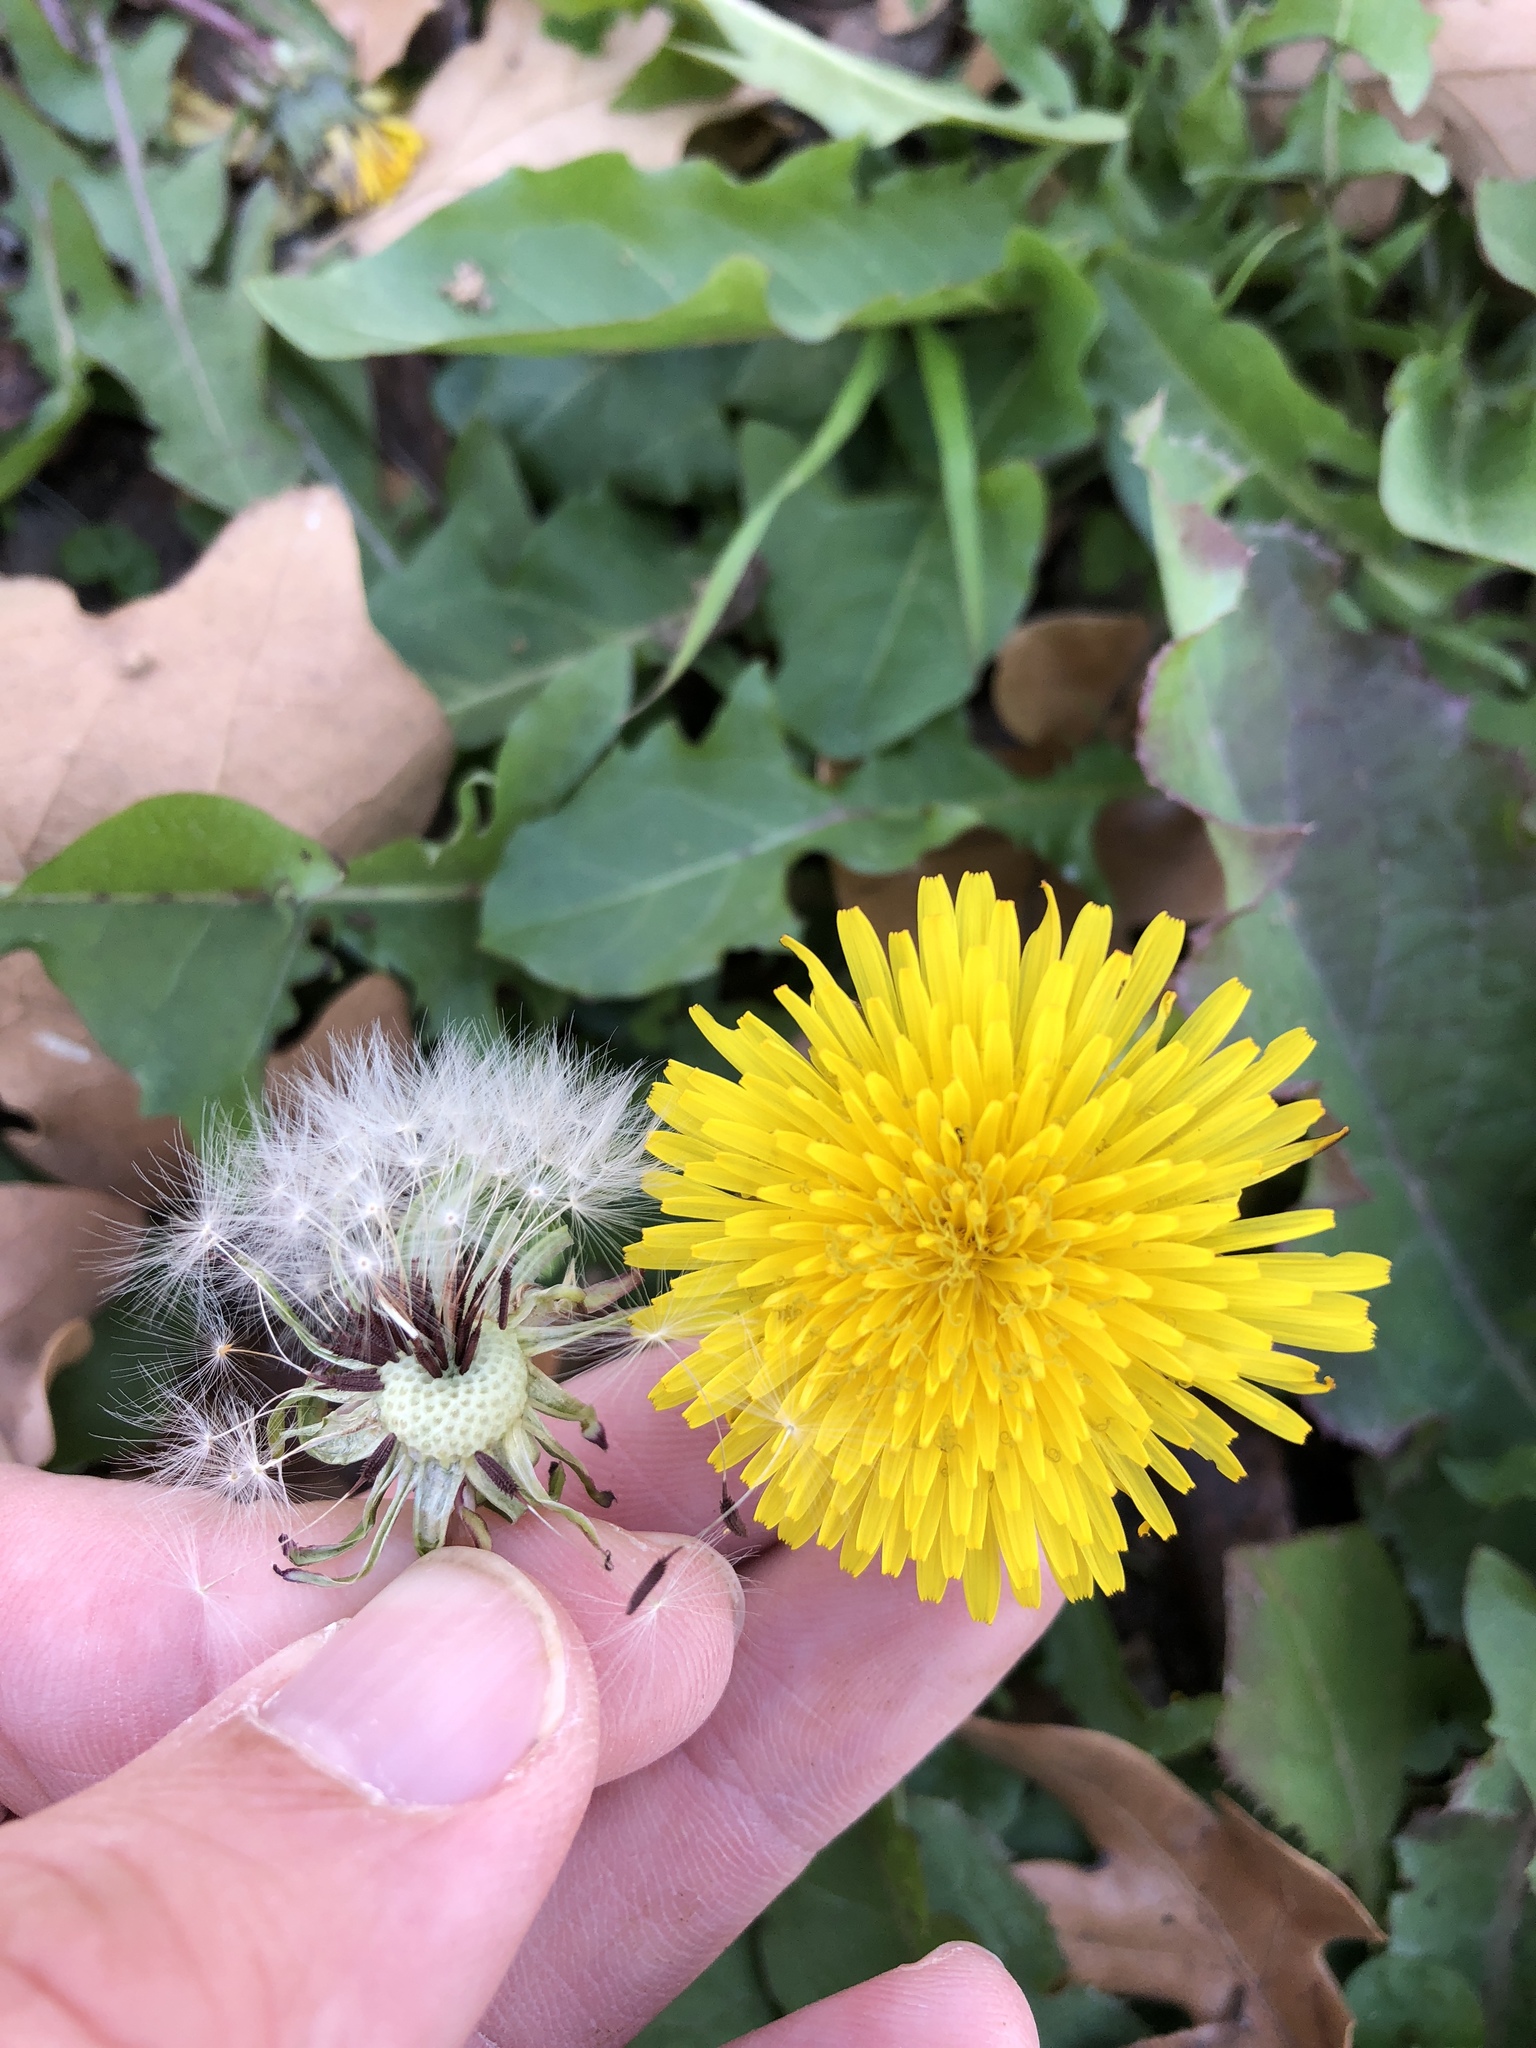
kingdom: Plantae
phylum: Tracheophyta
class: Magnoliopsida
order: Asterales
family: Asteraceae
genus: Taraxacum
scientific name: Taraxacum erythrospermum
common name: Rock dandelion
